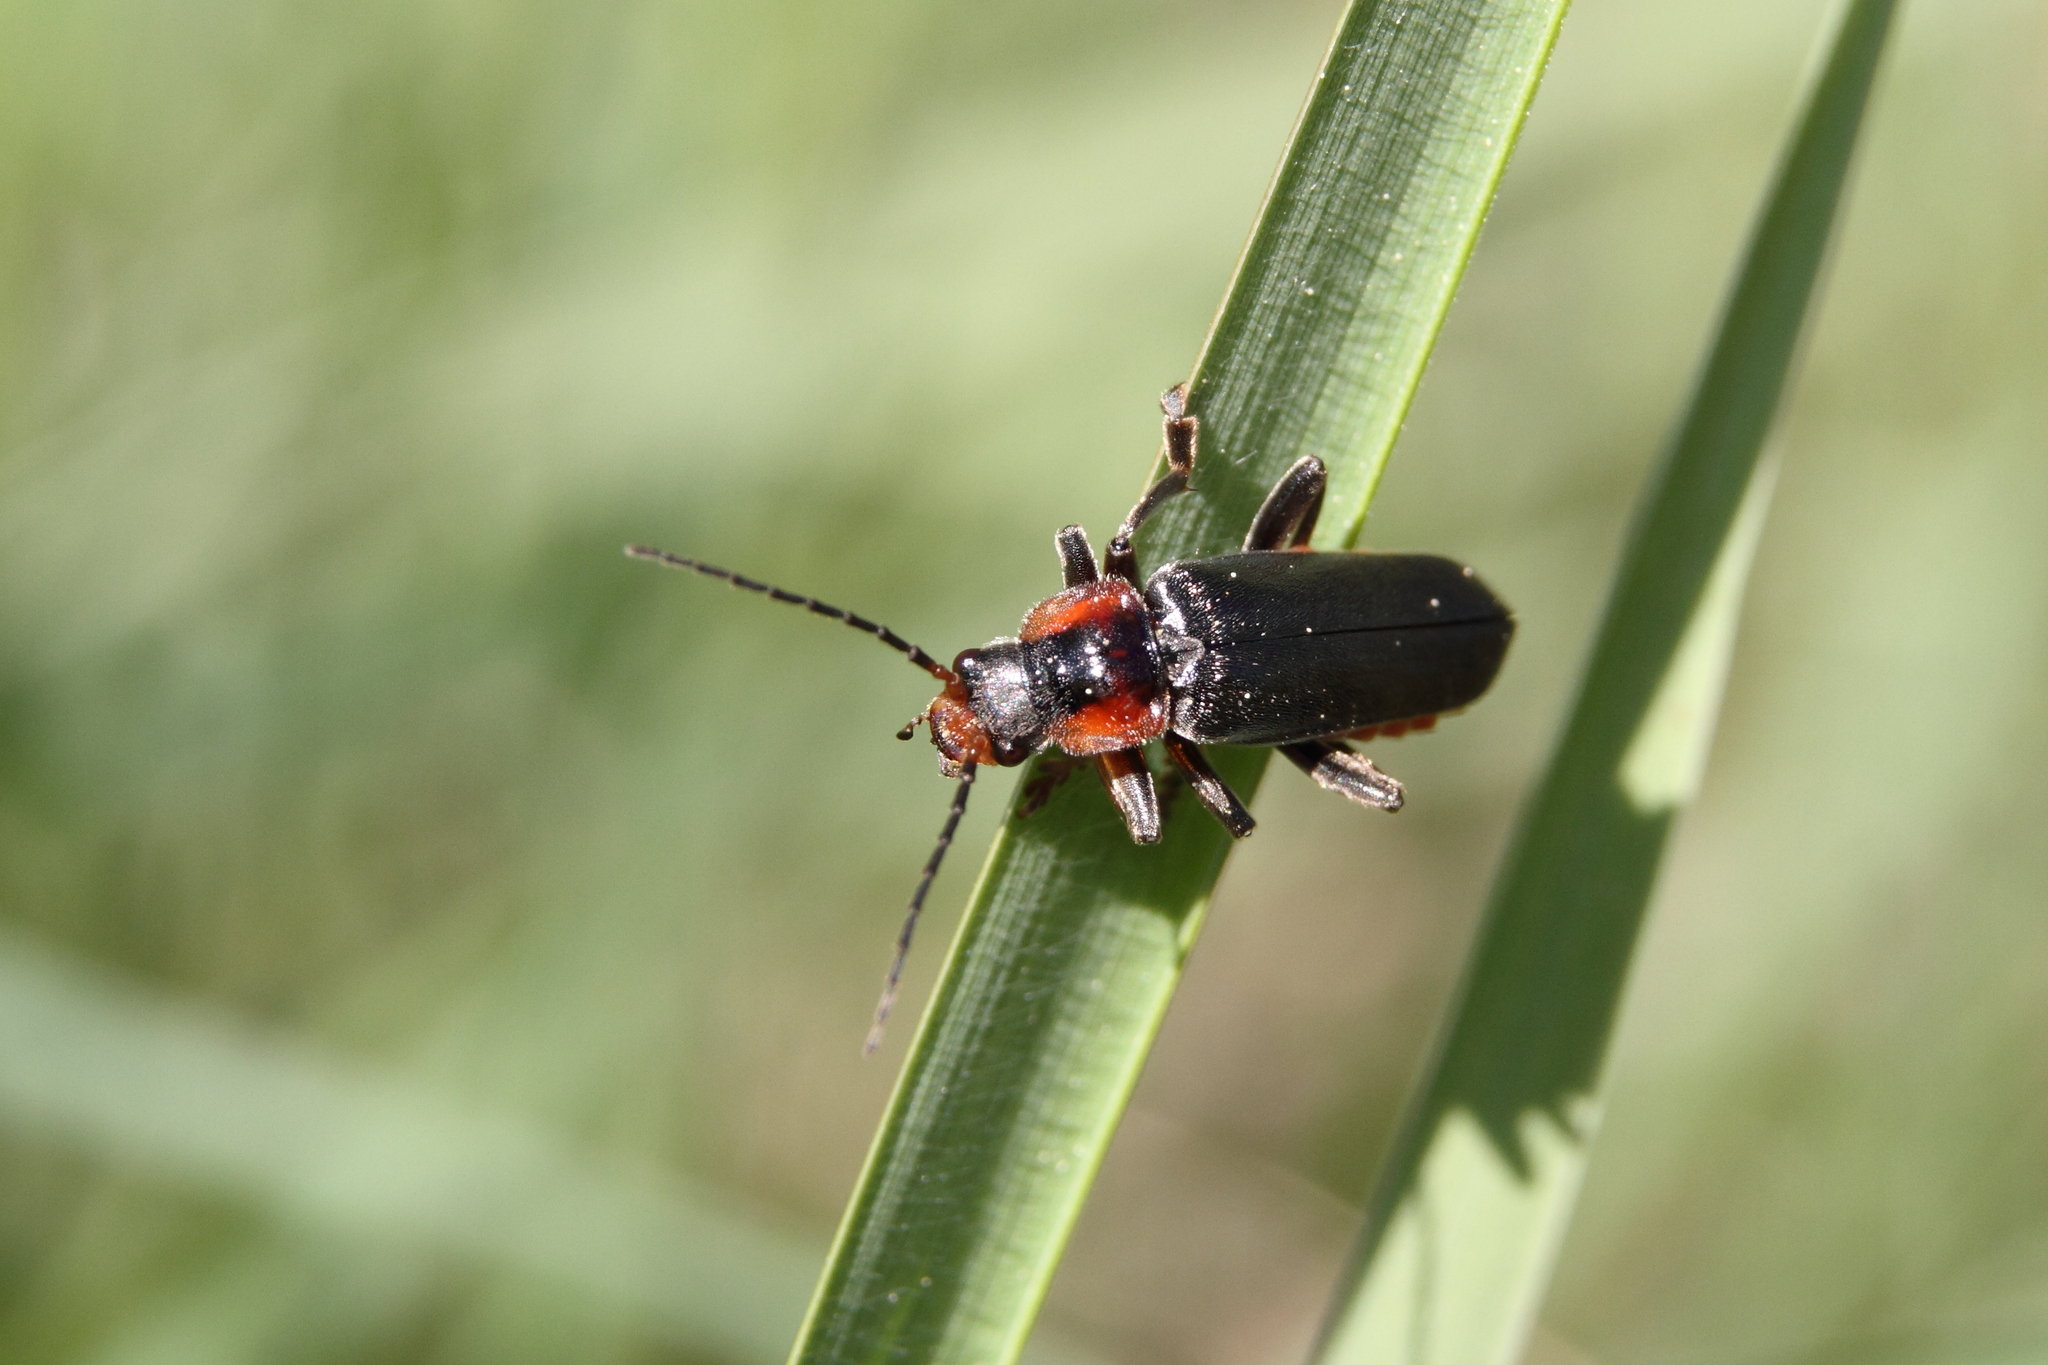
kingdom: Animalia
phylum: Arthropoda
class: Insecta
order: Coleoptera
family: Cantharidae
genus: Cantharis
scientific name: Cantharis fusca
